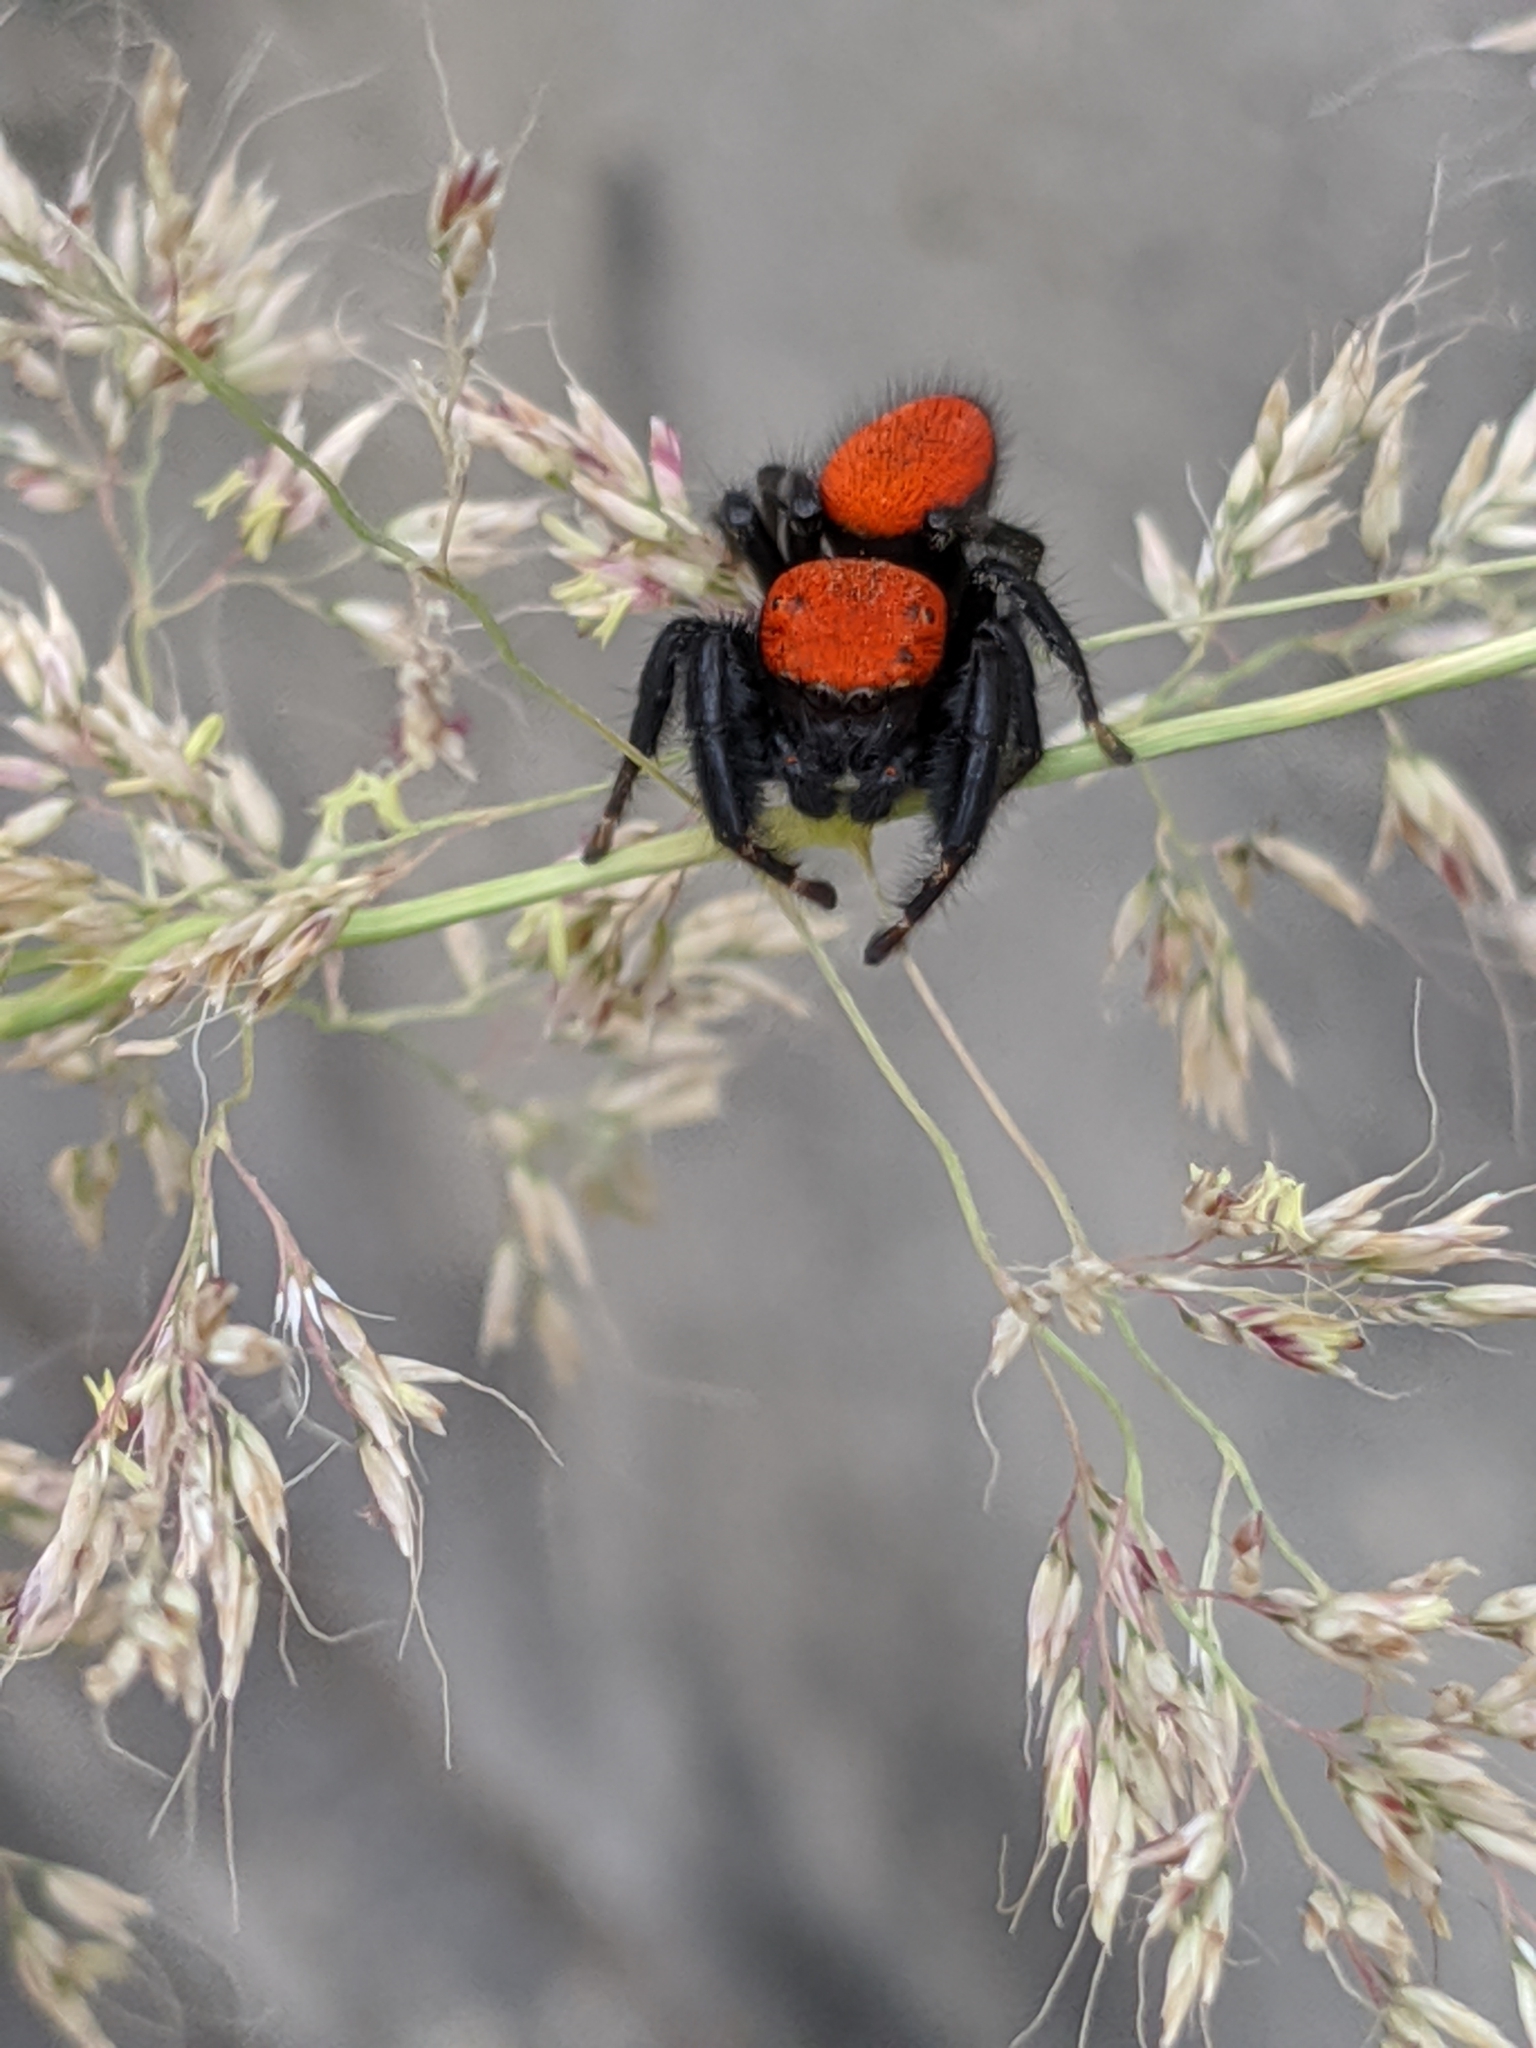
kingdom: Animalia
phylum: Arthropoda
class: Arachnida
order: Araneae
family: Salticidae
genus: Phidippus
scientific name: Phidippus cardinalis
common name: Cardinal jumper
